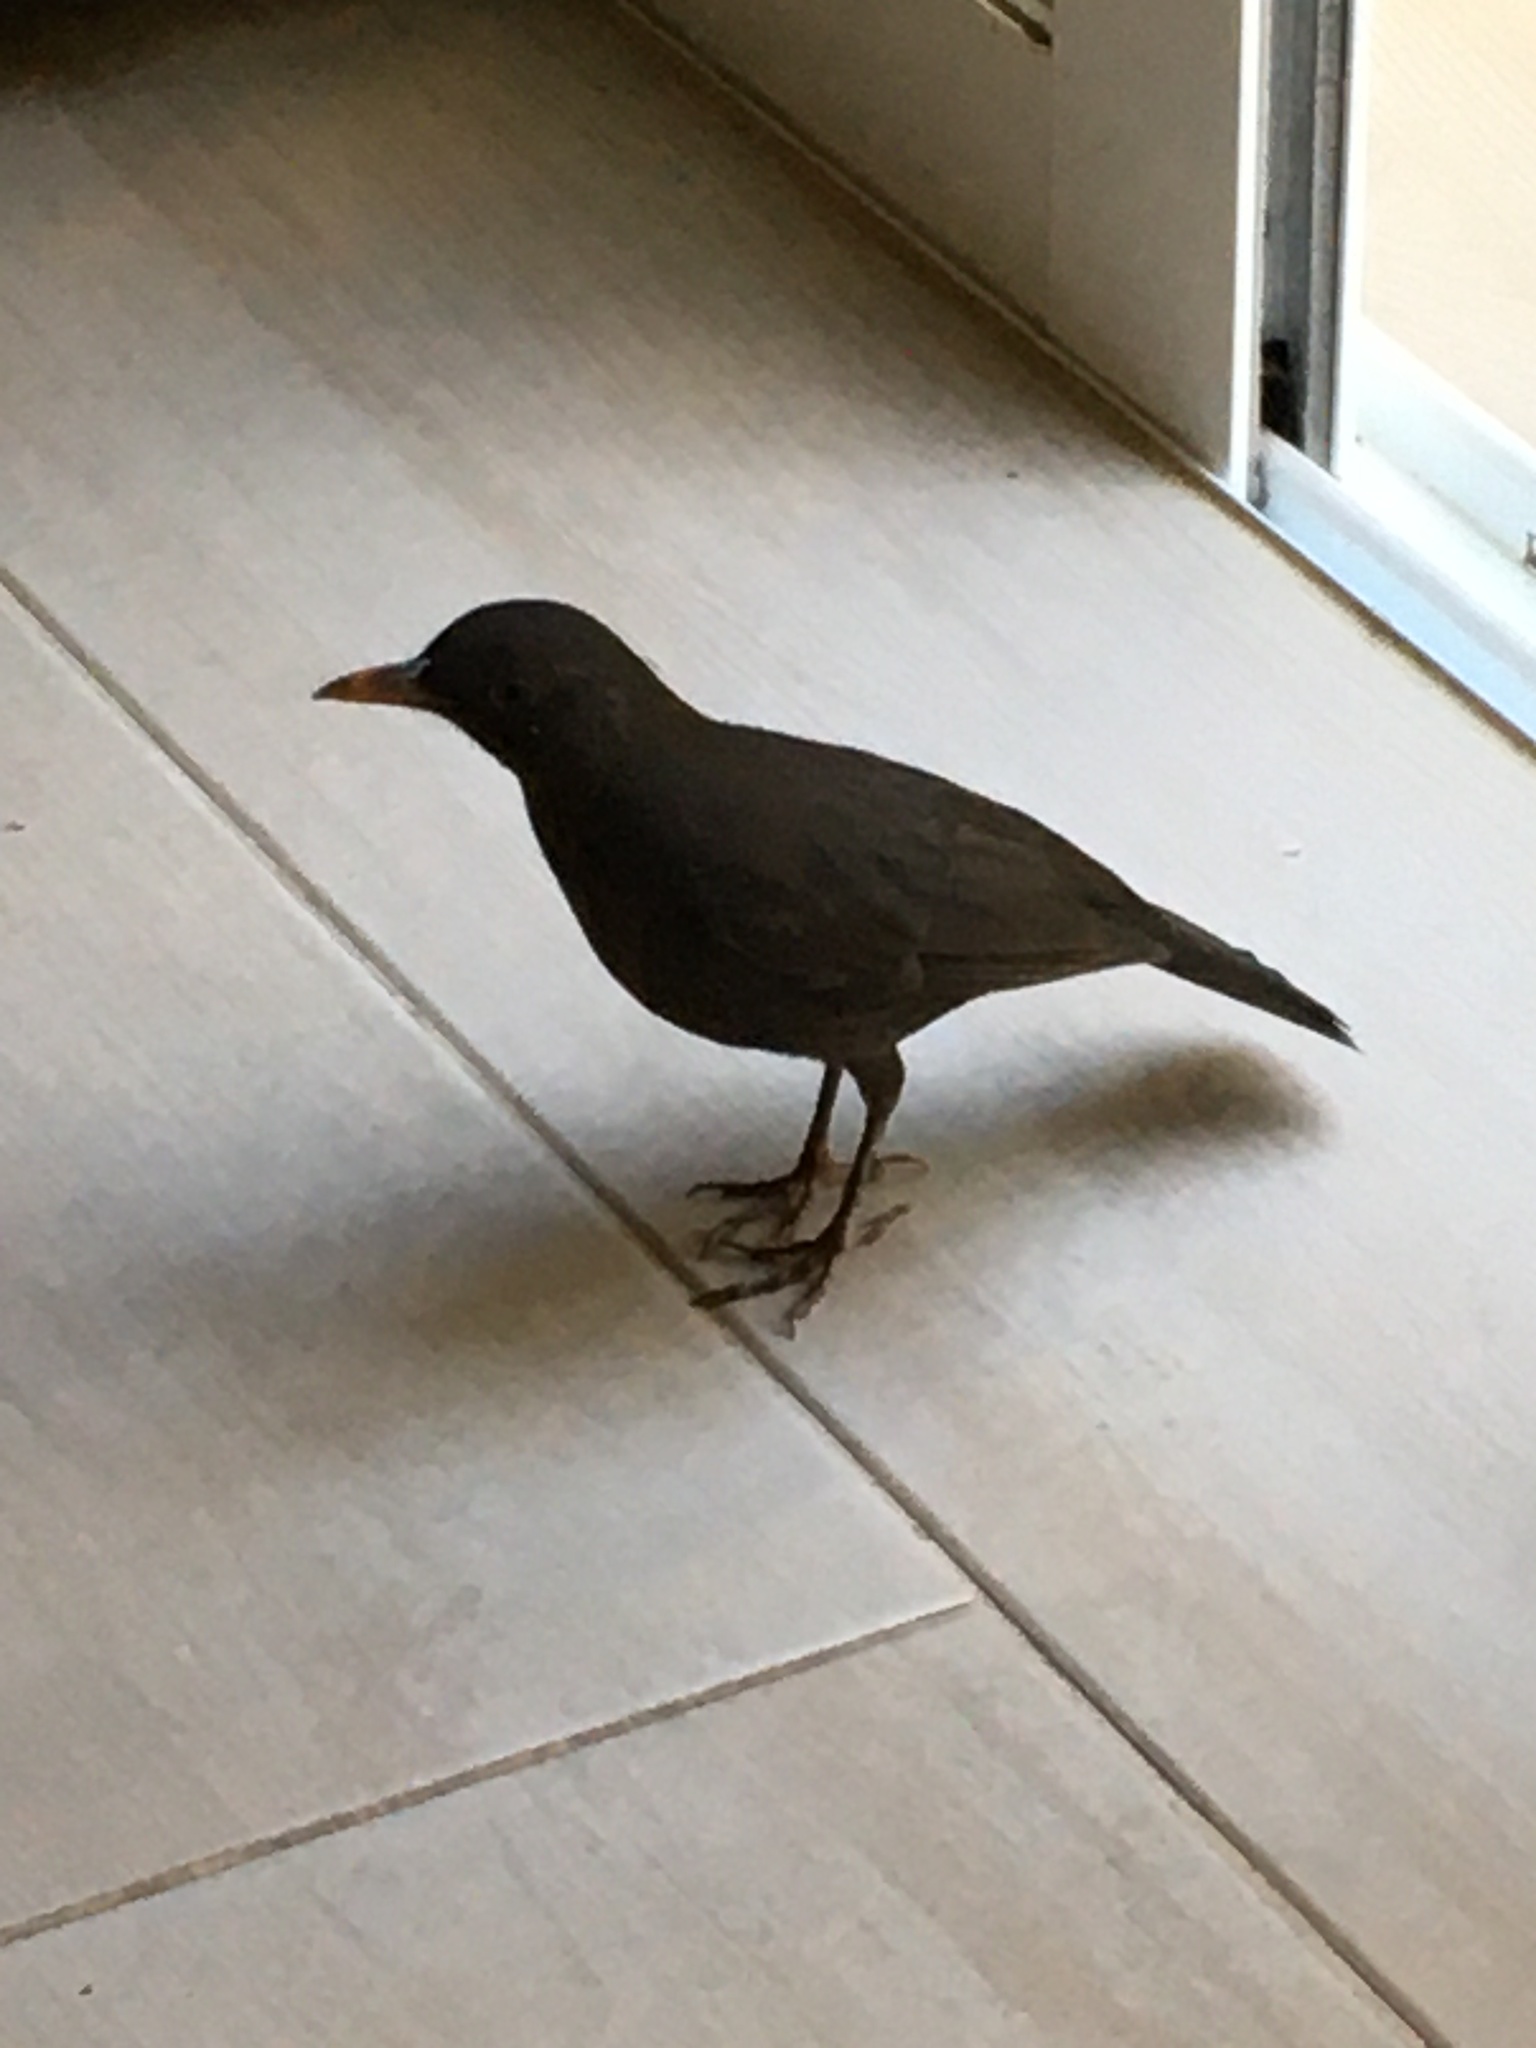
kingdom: Animalia
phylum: Chordata
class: Aves
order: Passeriformes
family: Turdidae
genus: Turdus
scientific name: Turdus merula
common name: Common blackbird
